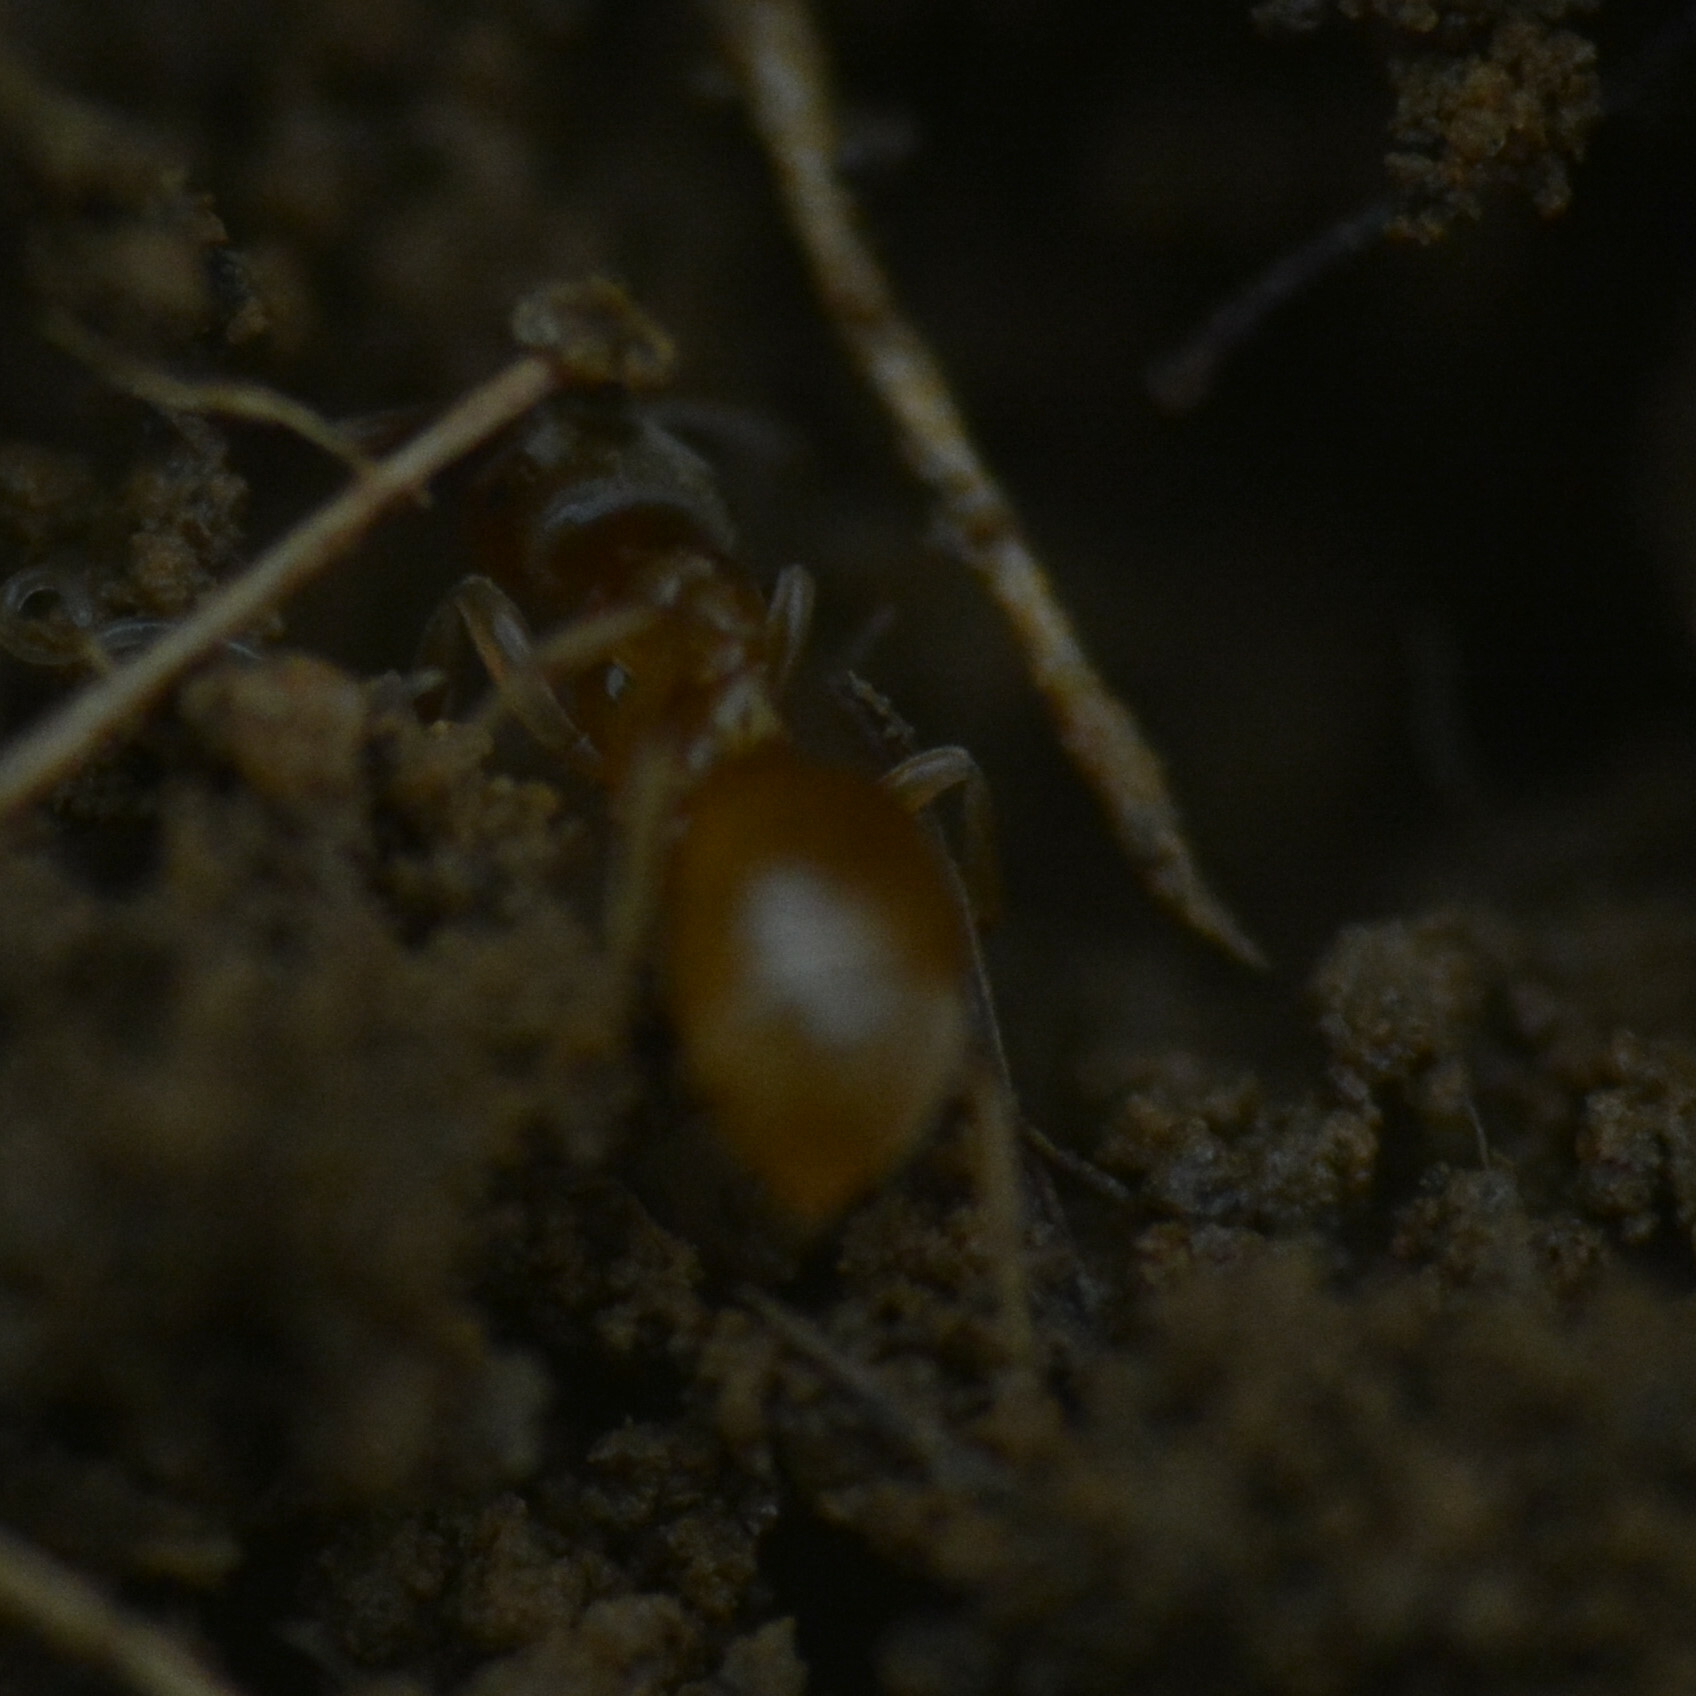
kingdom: Animalia
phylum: Arthropoda
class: Insecta
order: Hymenoptera
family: Formicidae
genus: Lasius
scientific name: Lasius flavus
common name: Blond field ant
